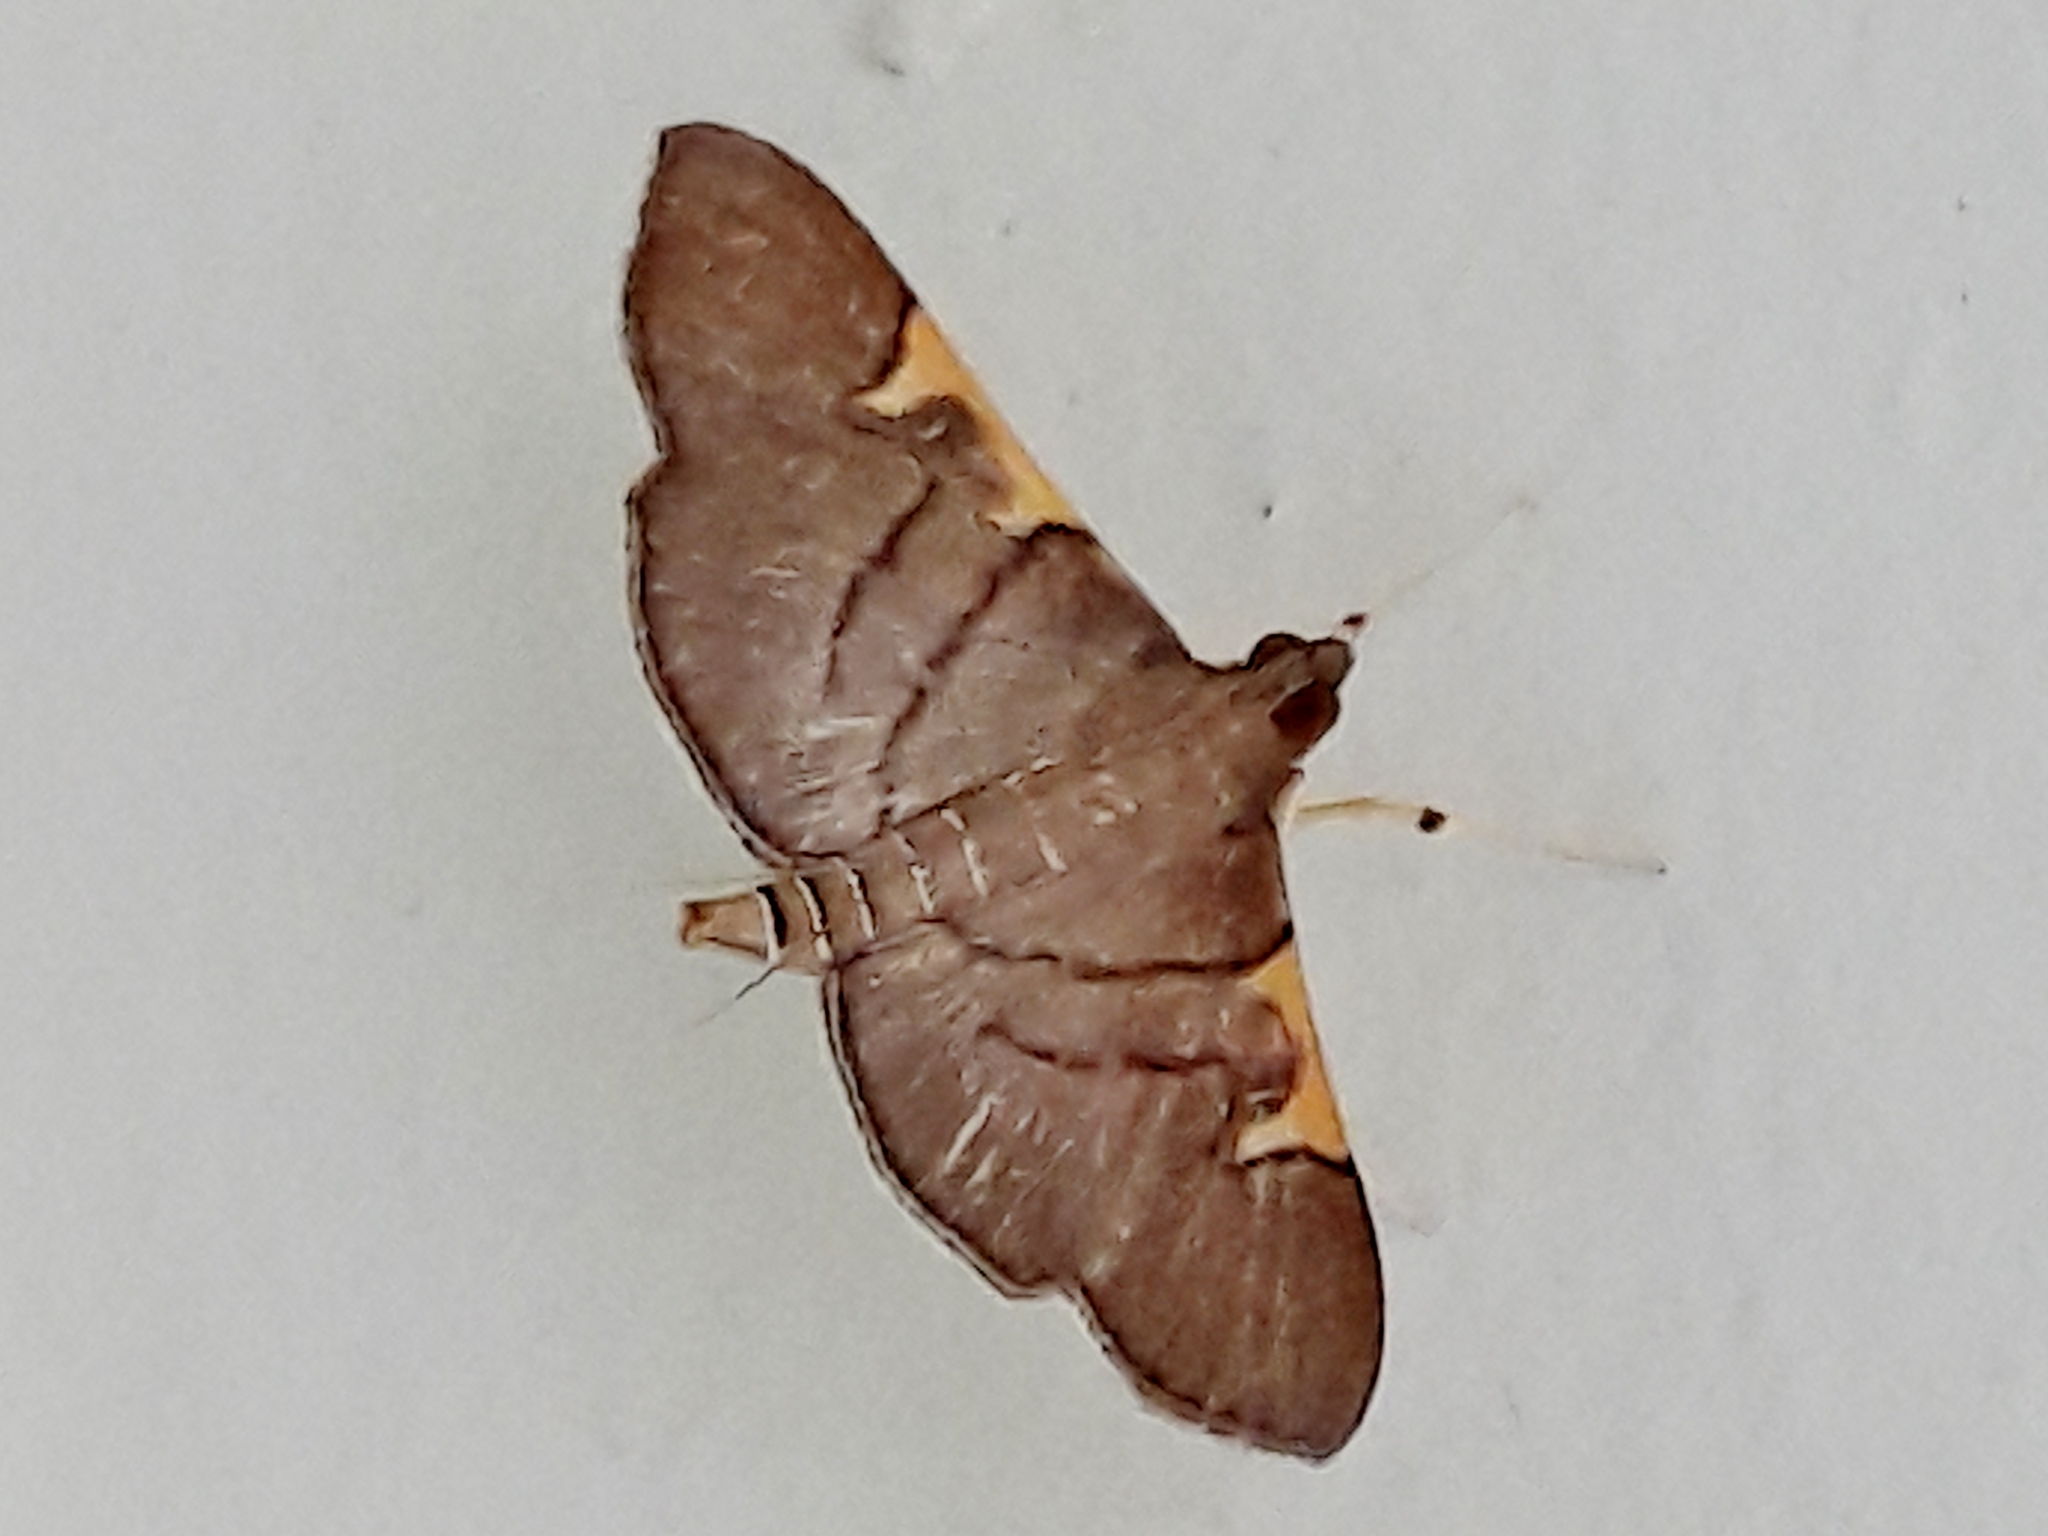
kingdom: Animalia
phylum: Arthropoda
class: Insecta
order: Lepidoptera
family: Crambidae
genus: Omiodes
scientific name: Omiodes simialis
